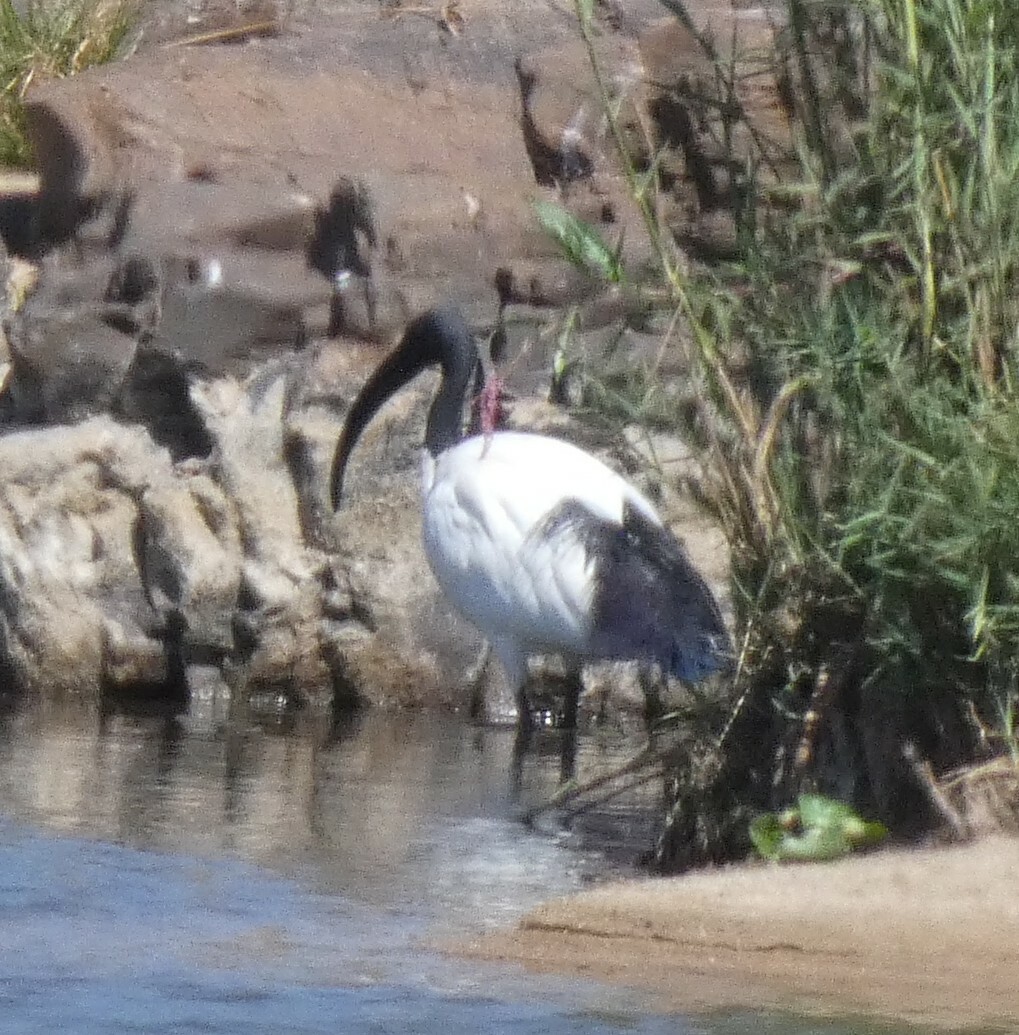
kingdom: Animalia
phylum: Chordata
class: Aves
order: Pelecaniformes
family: Threskiornithidae
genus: Threskiornis
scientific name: Threskiornis aethiopicus
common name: Sacred ibis
